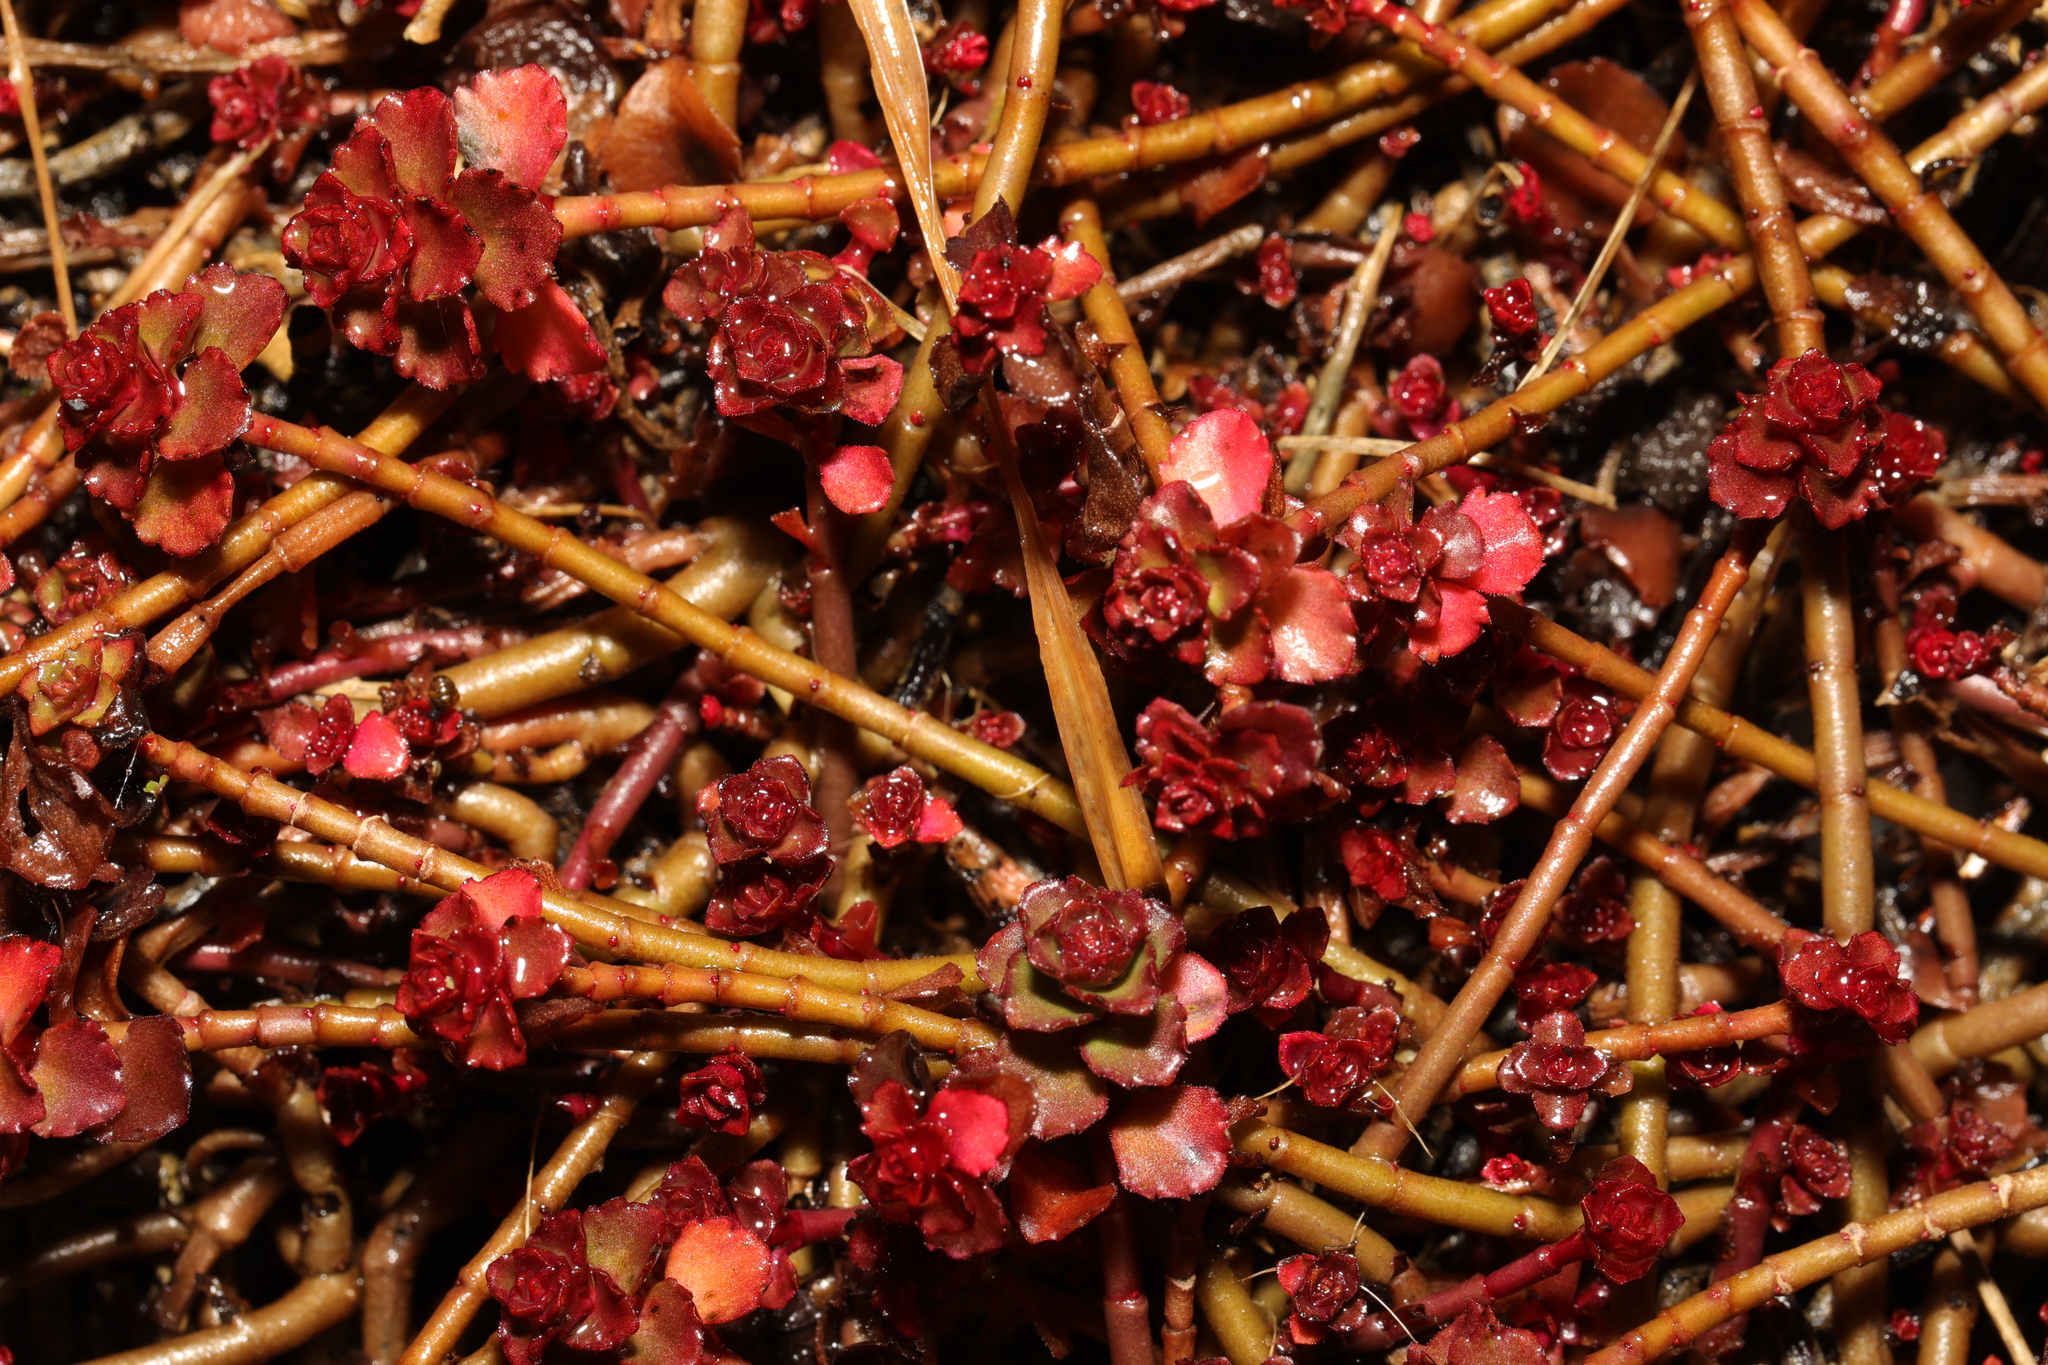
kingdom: Plantae
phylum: Tracheophyta
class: Magnoliopsida
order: Saxifragales
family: Crassulaceae
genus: Phedimus
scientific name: Phedimus spurius
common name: Caucasian stonecrop
